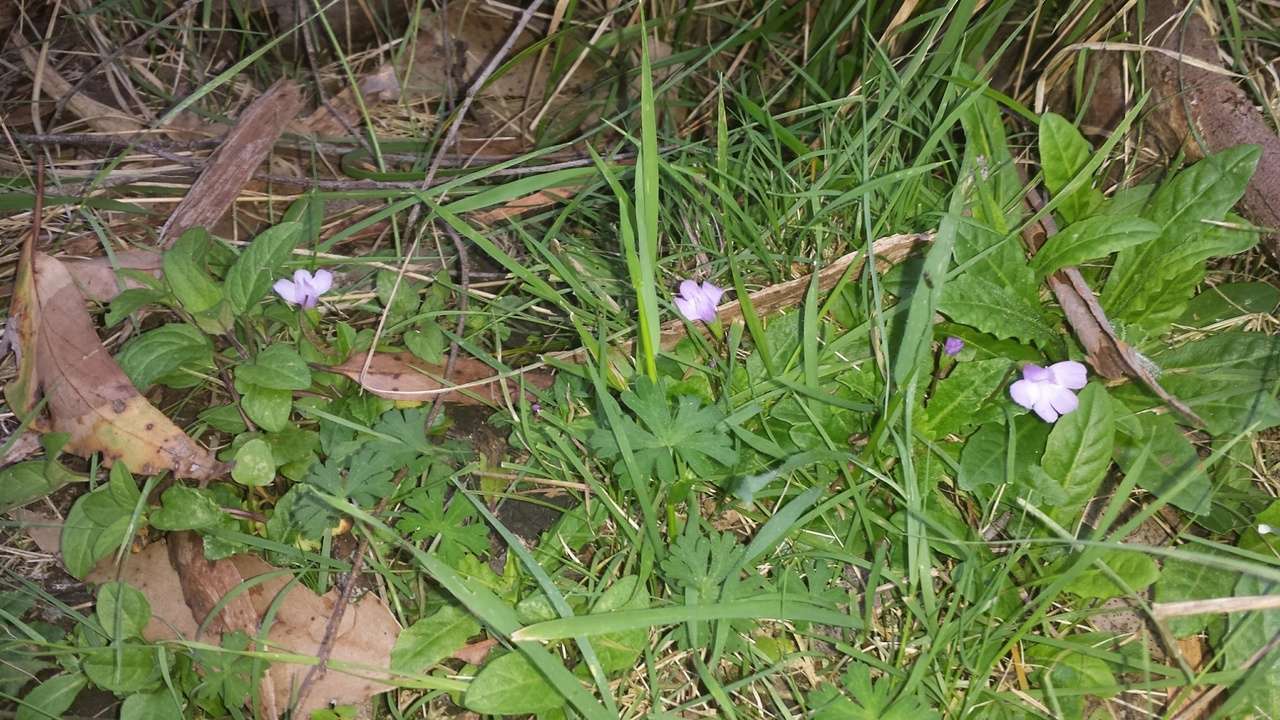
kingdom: Plantae
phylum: Tracheophyta
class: Magnoliopsida
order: Lamiales
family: Mazaceae
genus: Mazus
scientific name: Mazus pumilio
